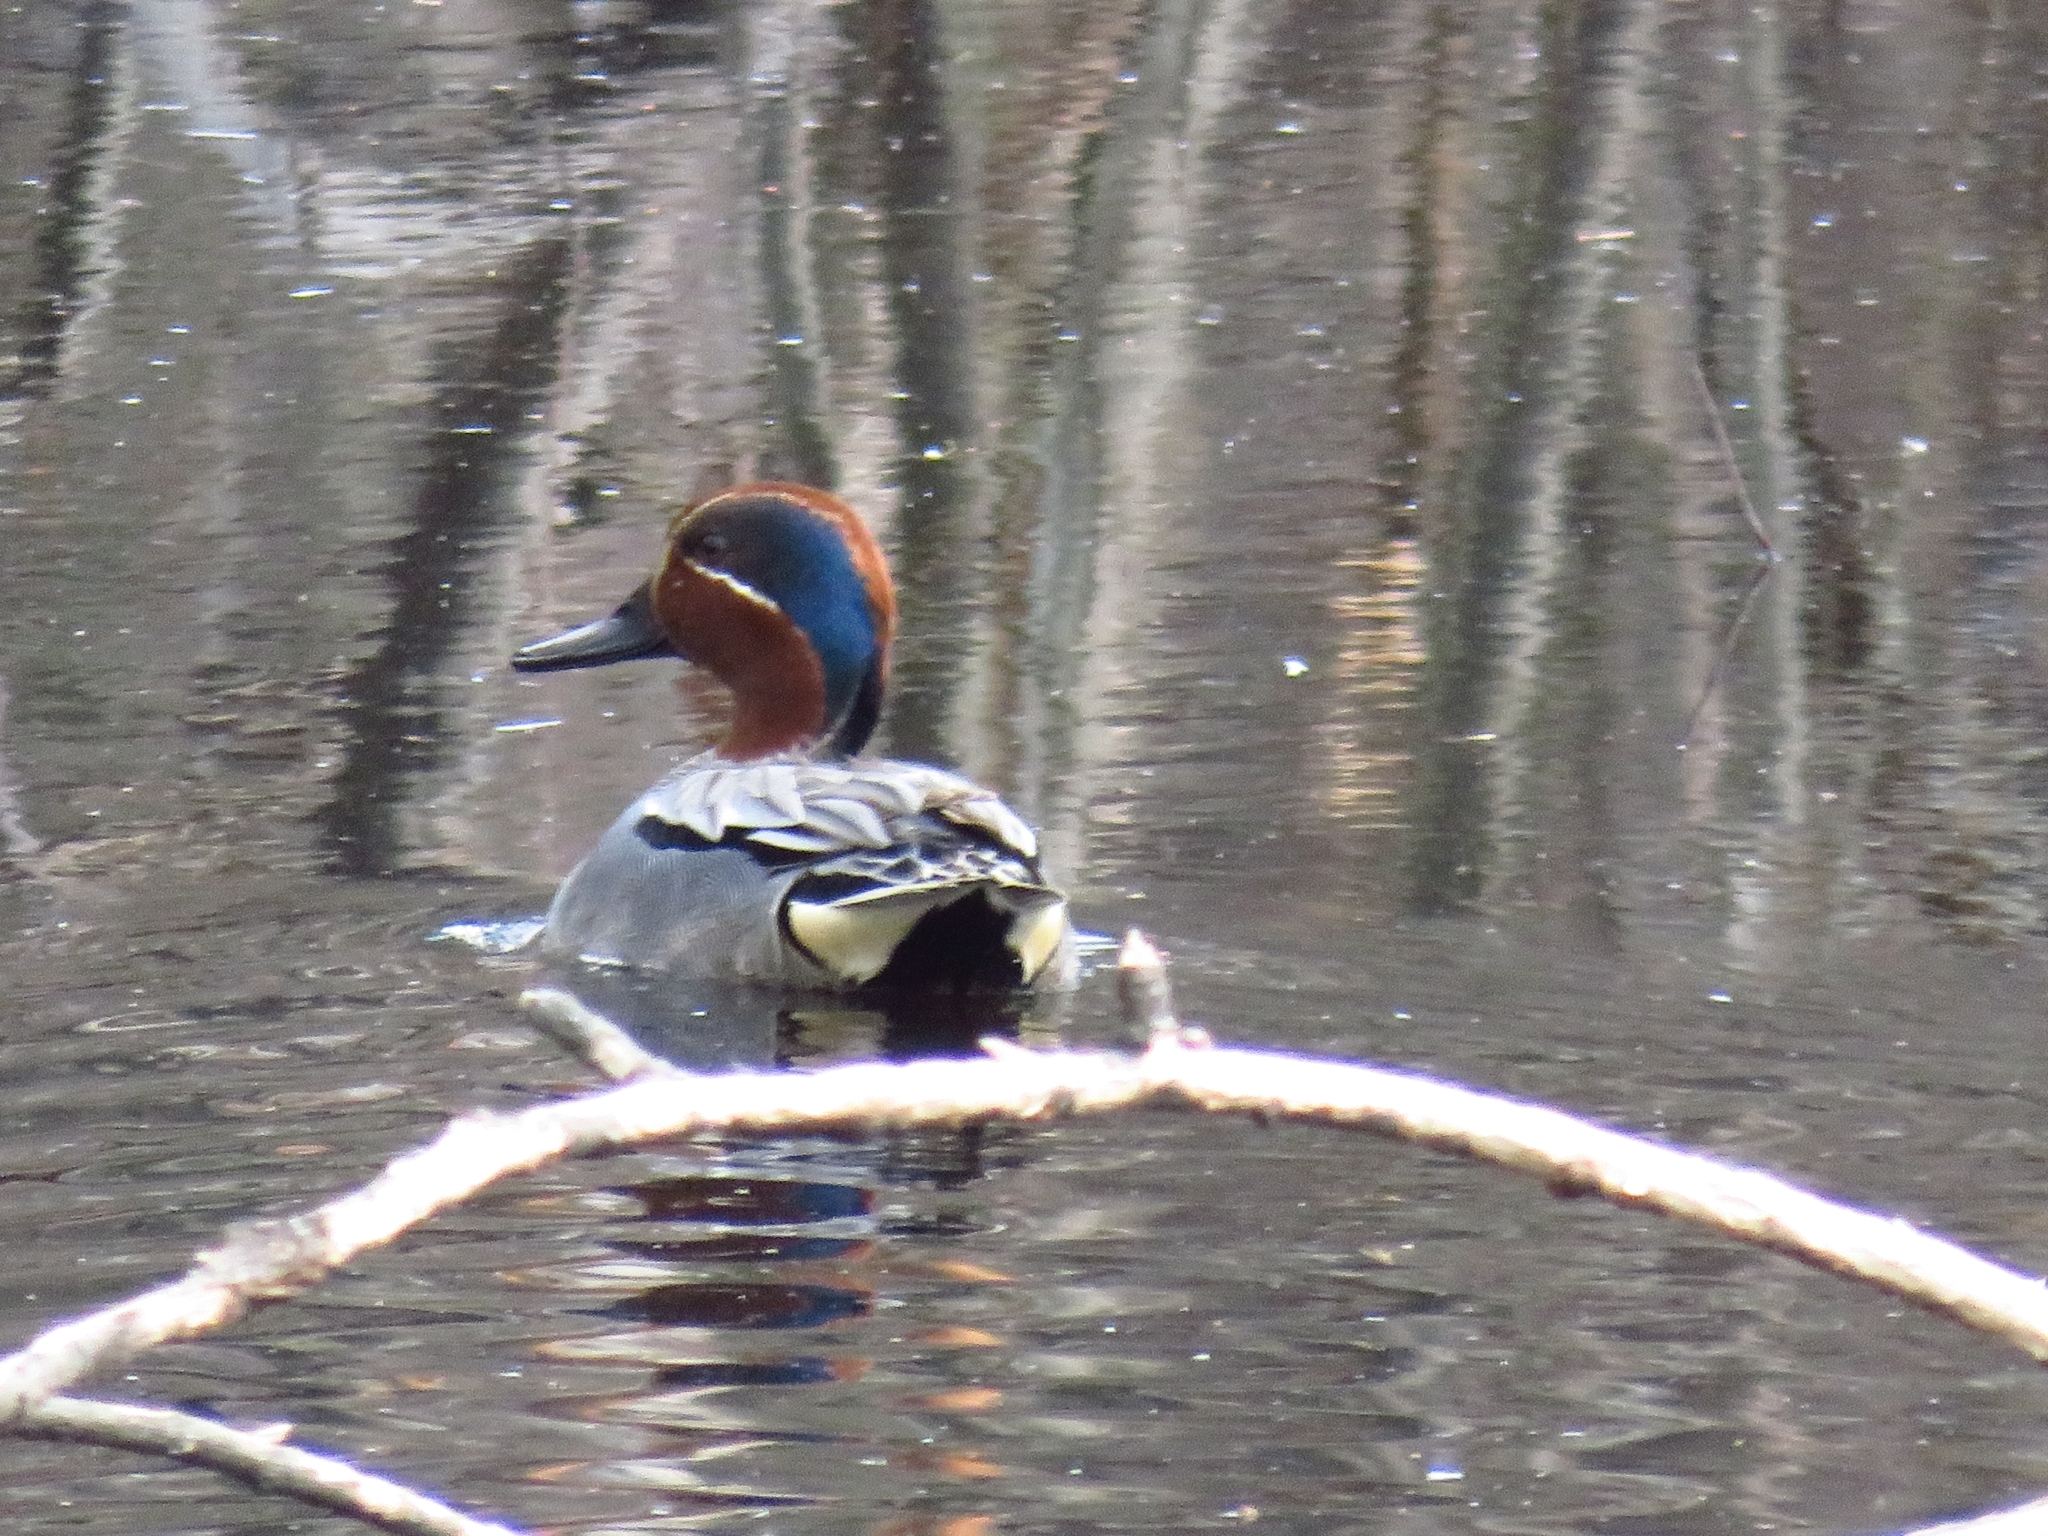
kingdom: Animalia
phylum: Chordata
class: Aves
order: Anseriformes
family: Anatidae
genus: Anas
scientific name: Anas crecca
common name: Eurasian teal
